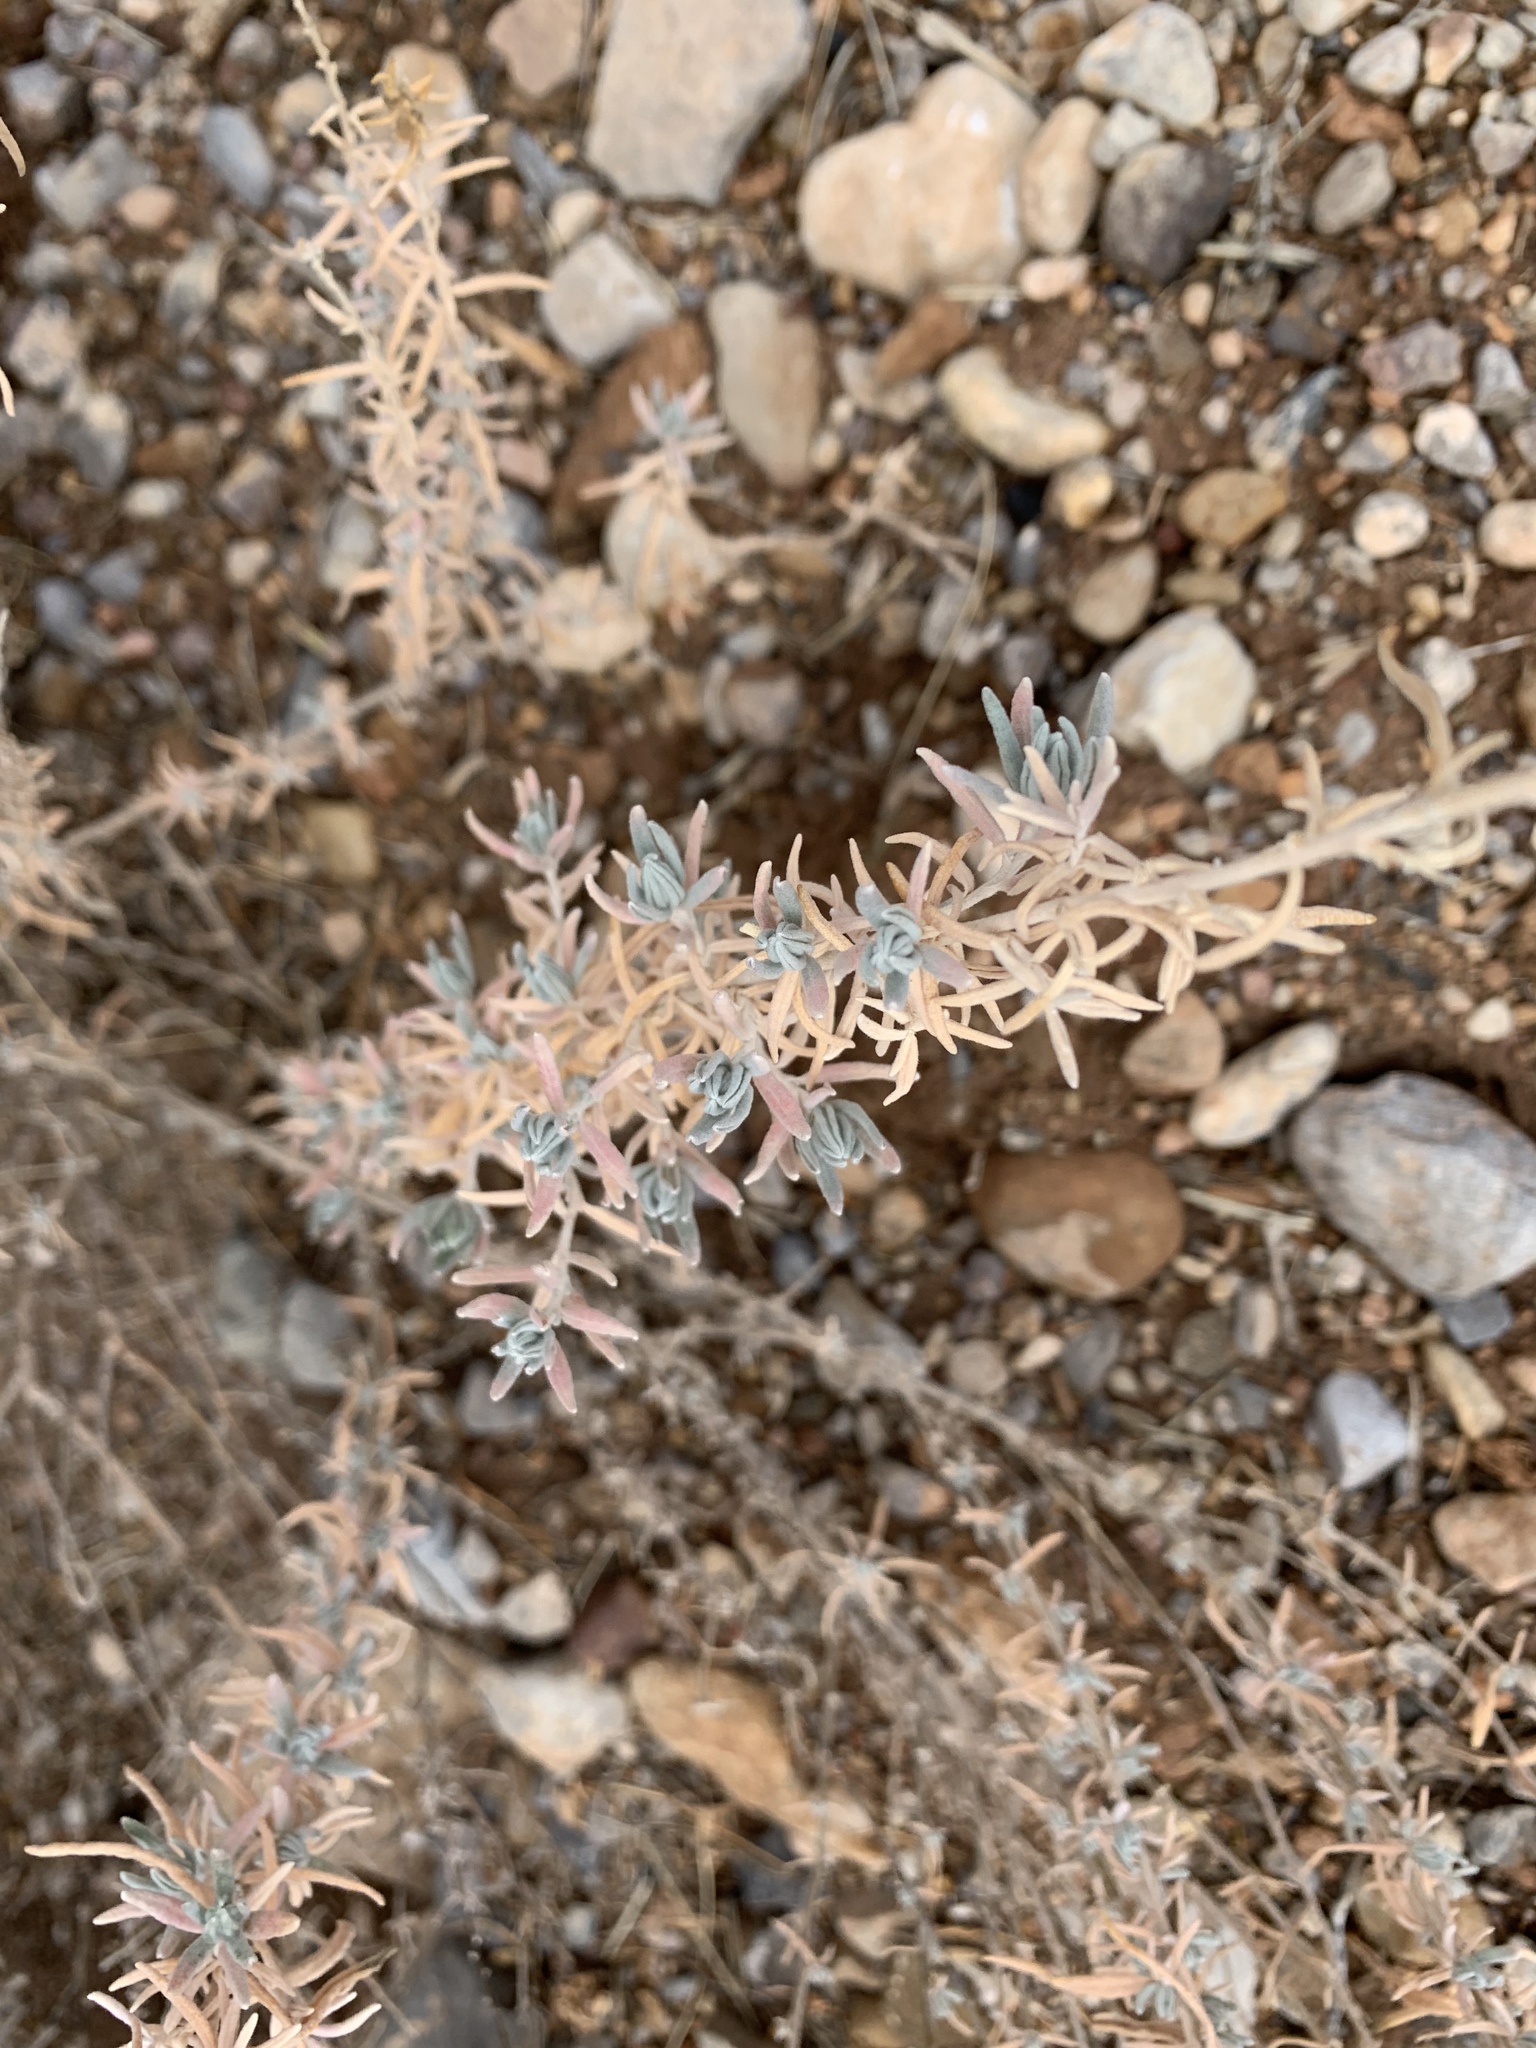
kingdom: Plantae
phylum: Tracheophyta
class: Magnoliopsida
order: Caryophyllales
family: Amaranthaceae
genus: Krascheninnikovia
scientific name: Krascheninnikovia lanata
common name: Winterfat
